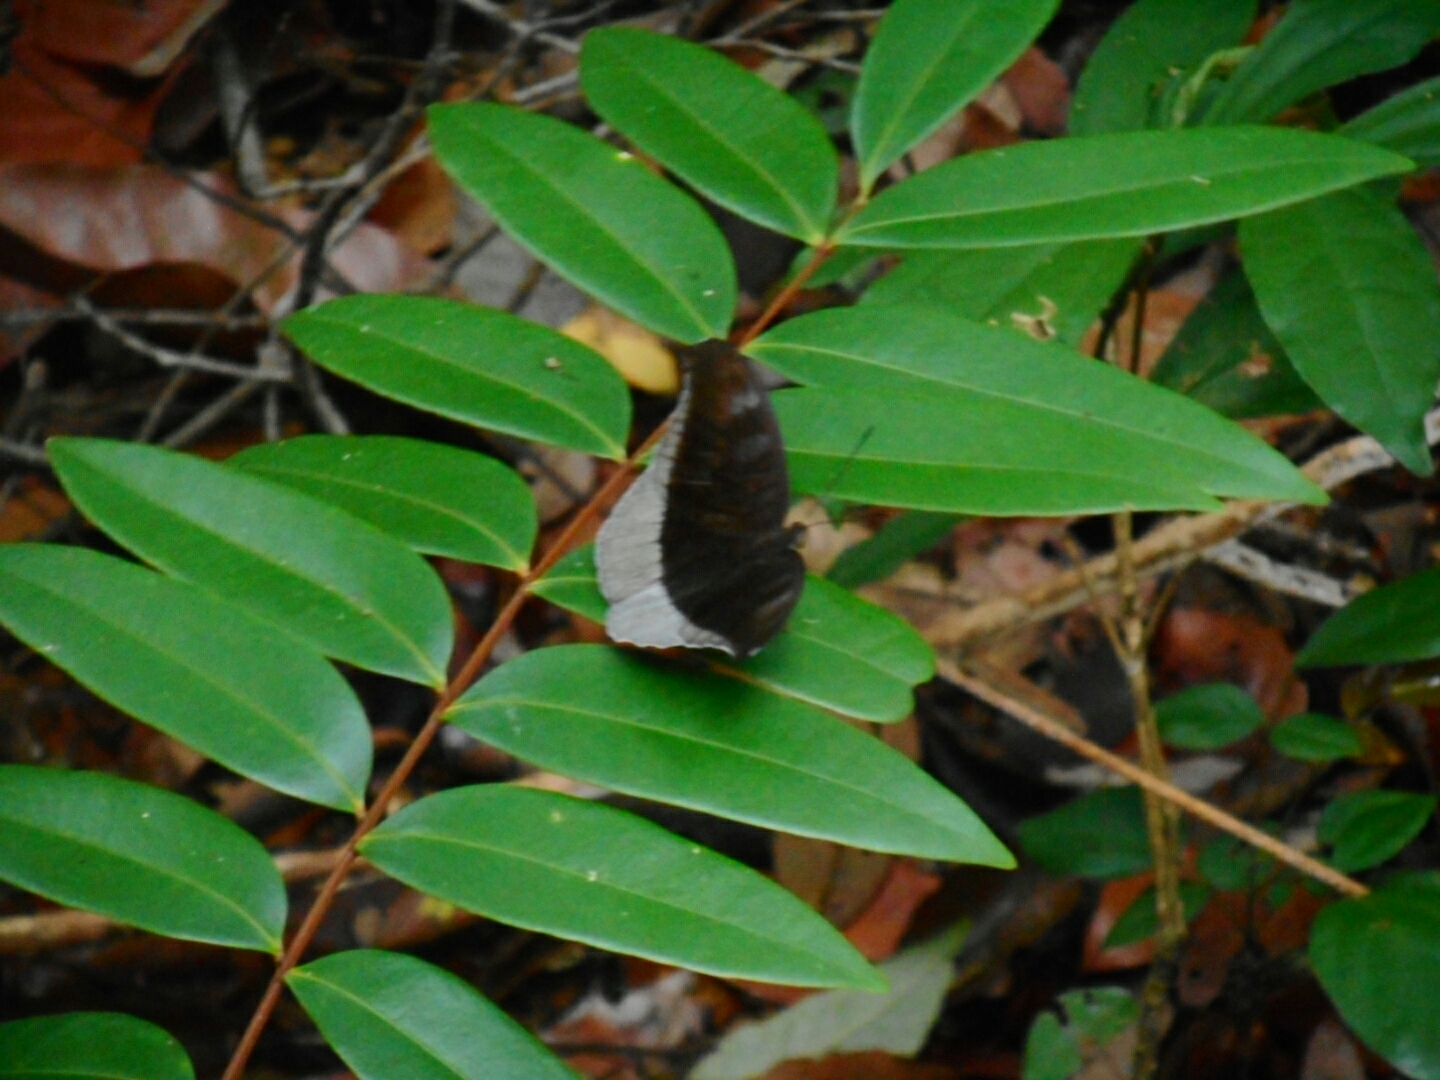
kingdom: Animalia
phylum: Arthropoda
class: Insecta
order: Lepidoptera
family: Nymphalidae
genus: Tanaecia
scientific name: Tanaecia lepidea
